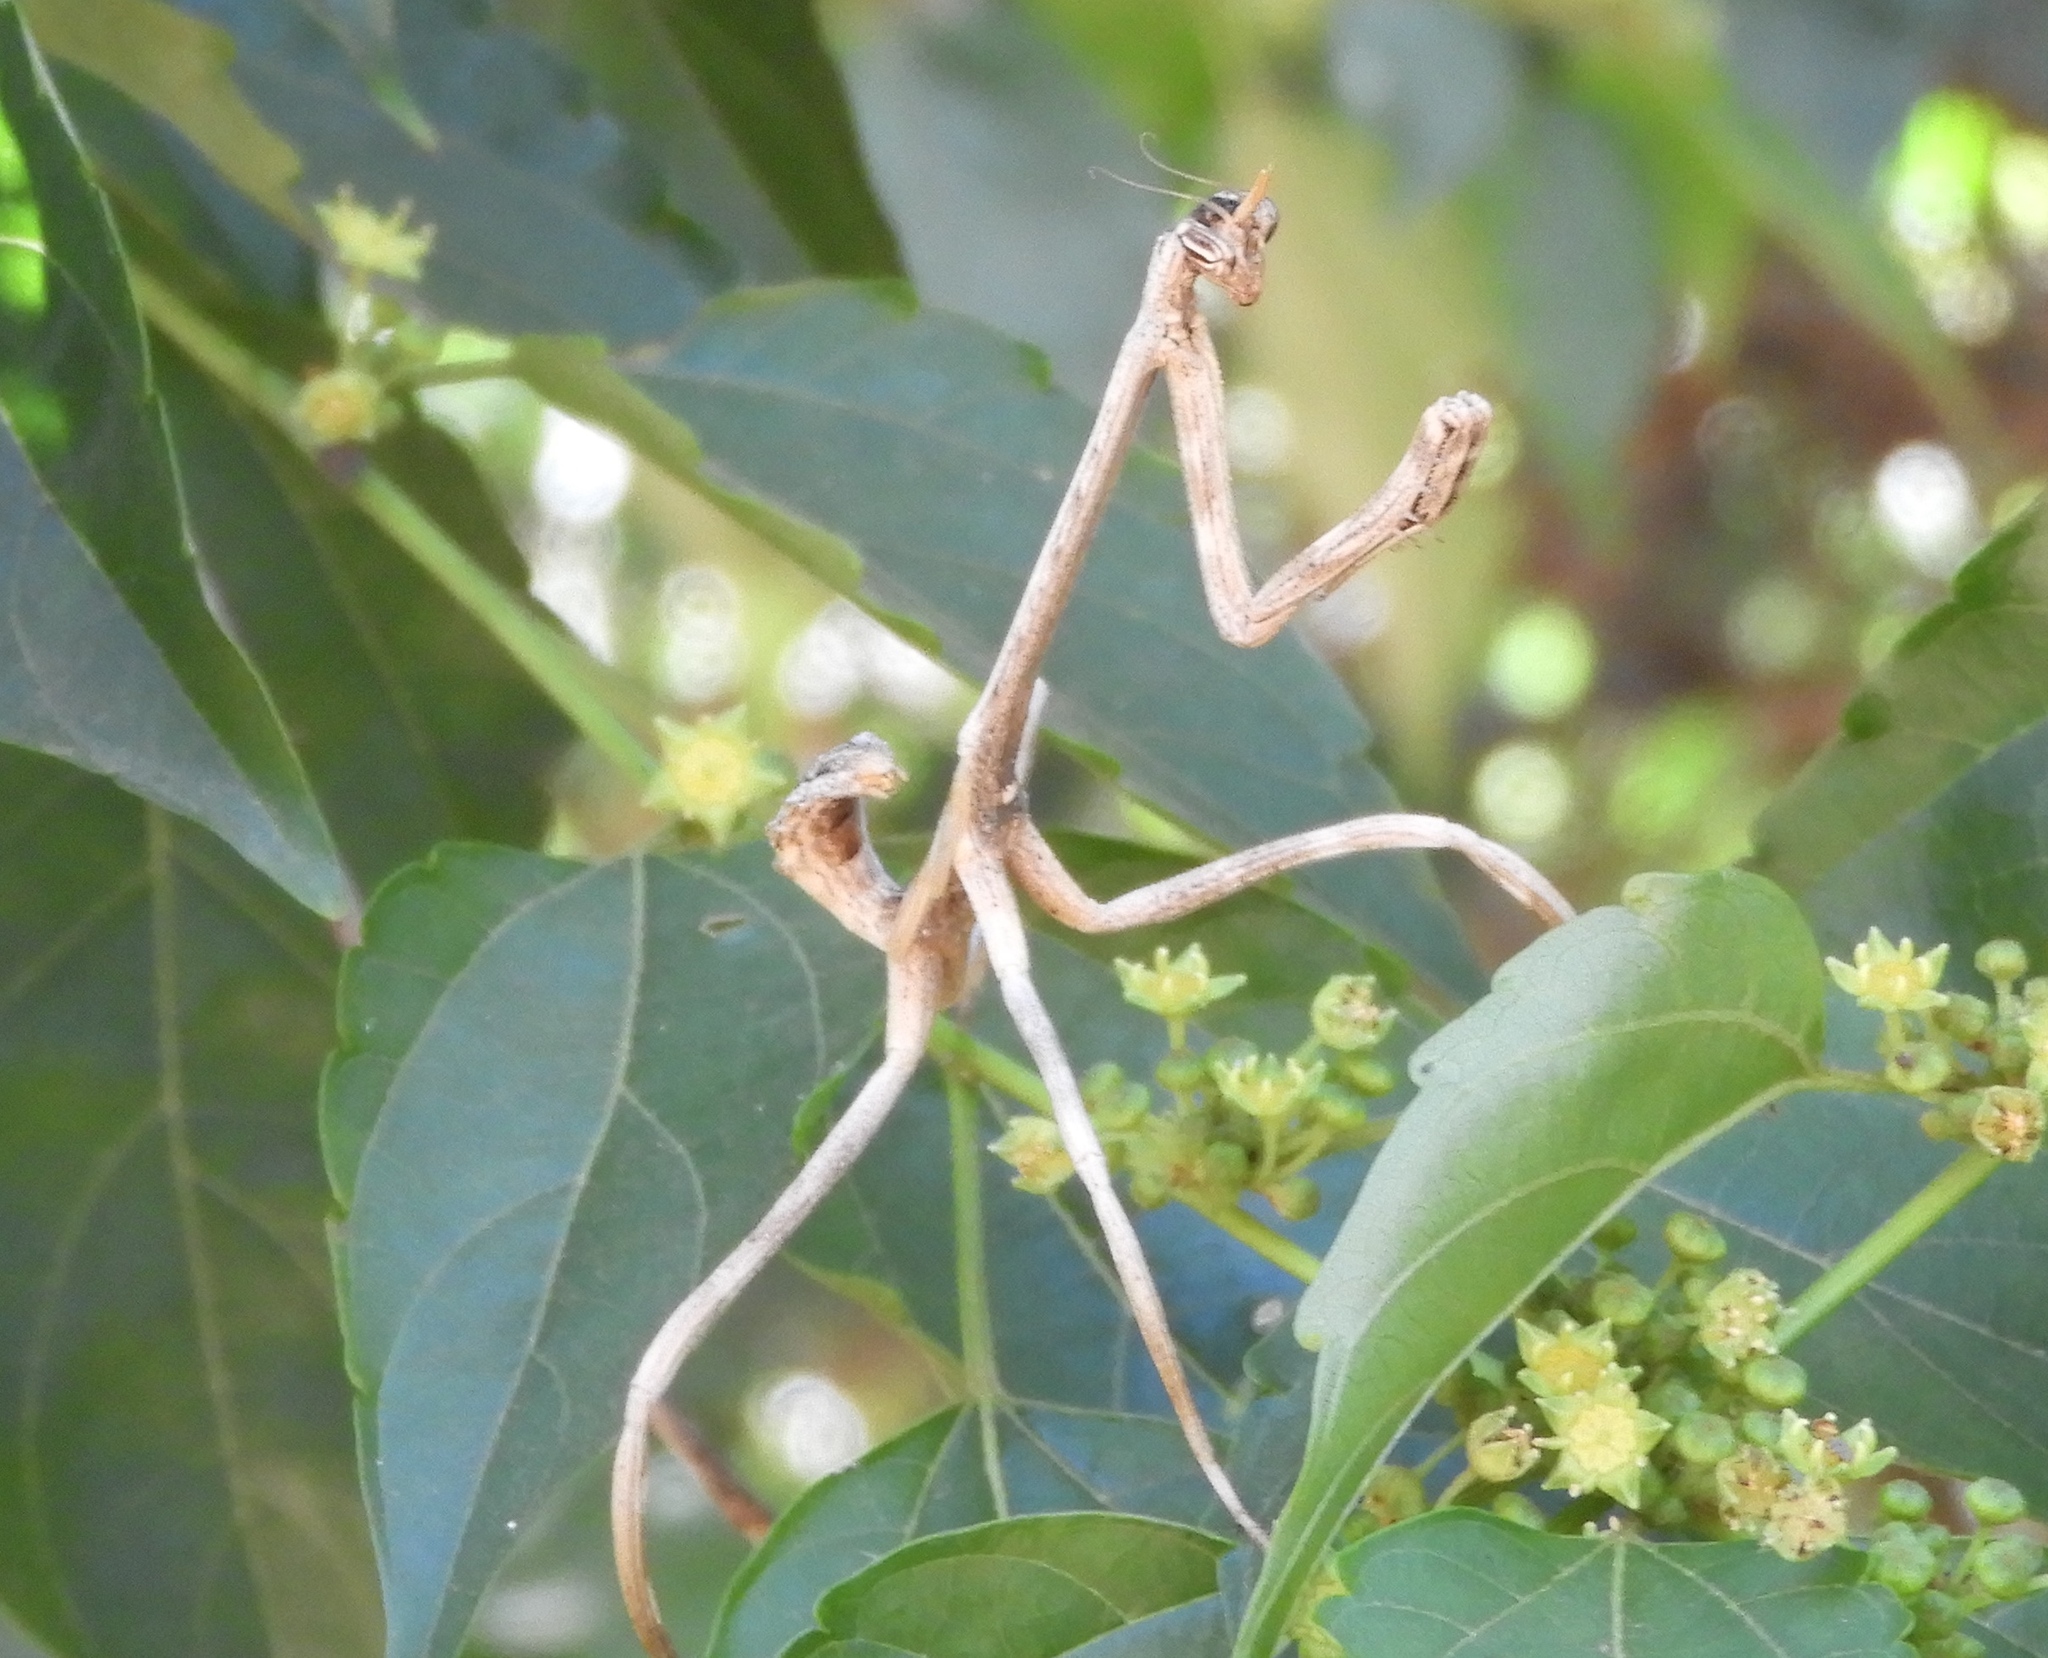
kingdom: Animalia
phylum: Arthropoda
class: Insecta
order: Mantodea
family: Mantidae
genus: Pseudovates
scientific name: Pseudovates chlorophaea
